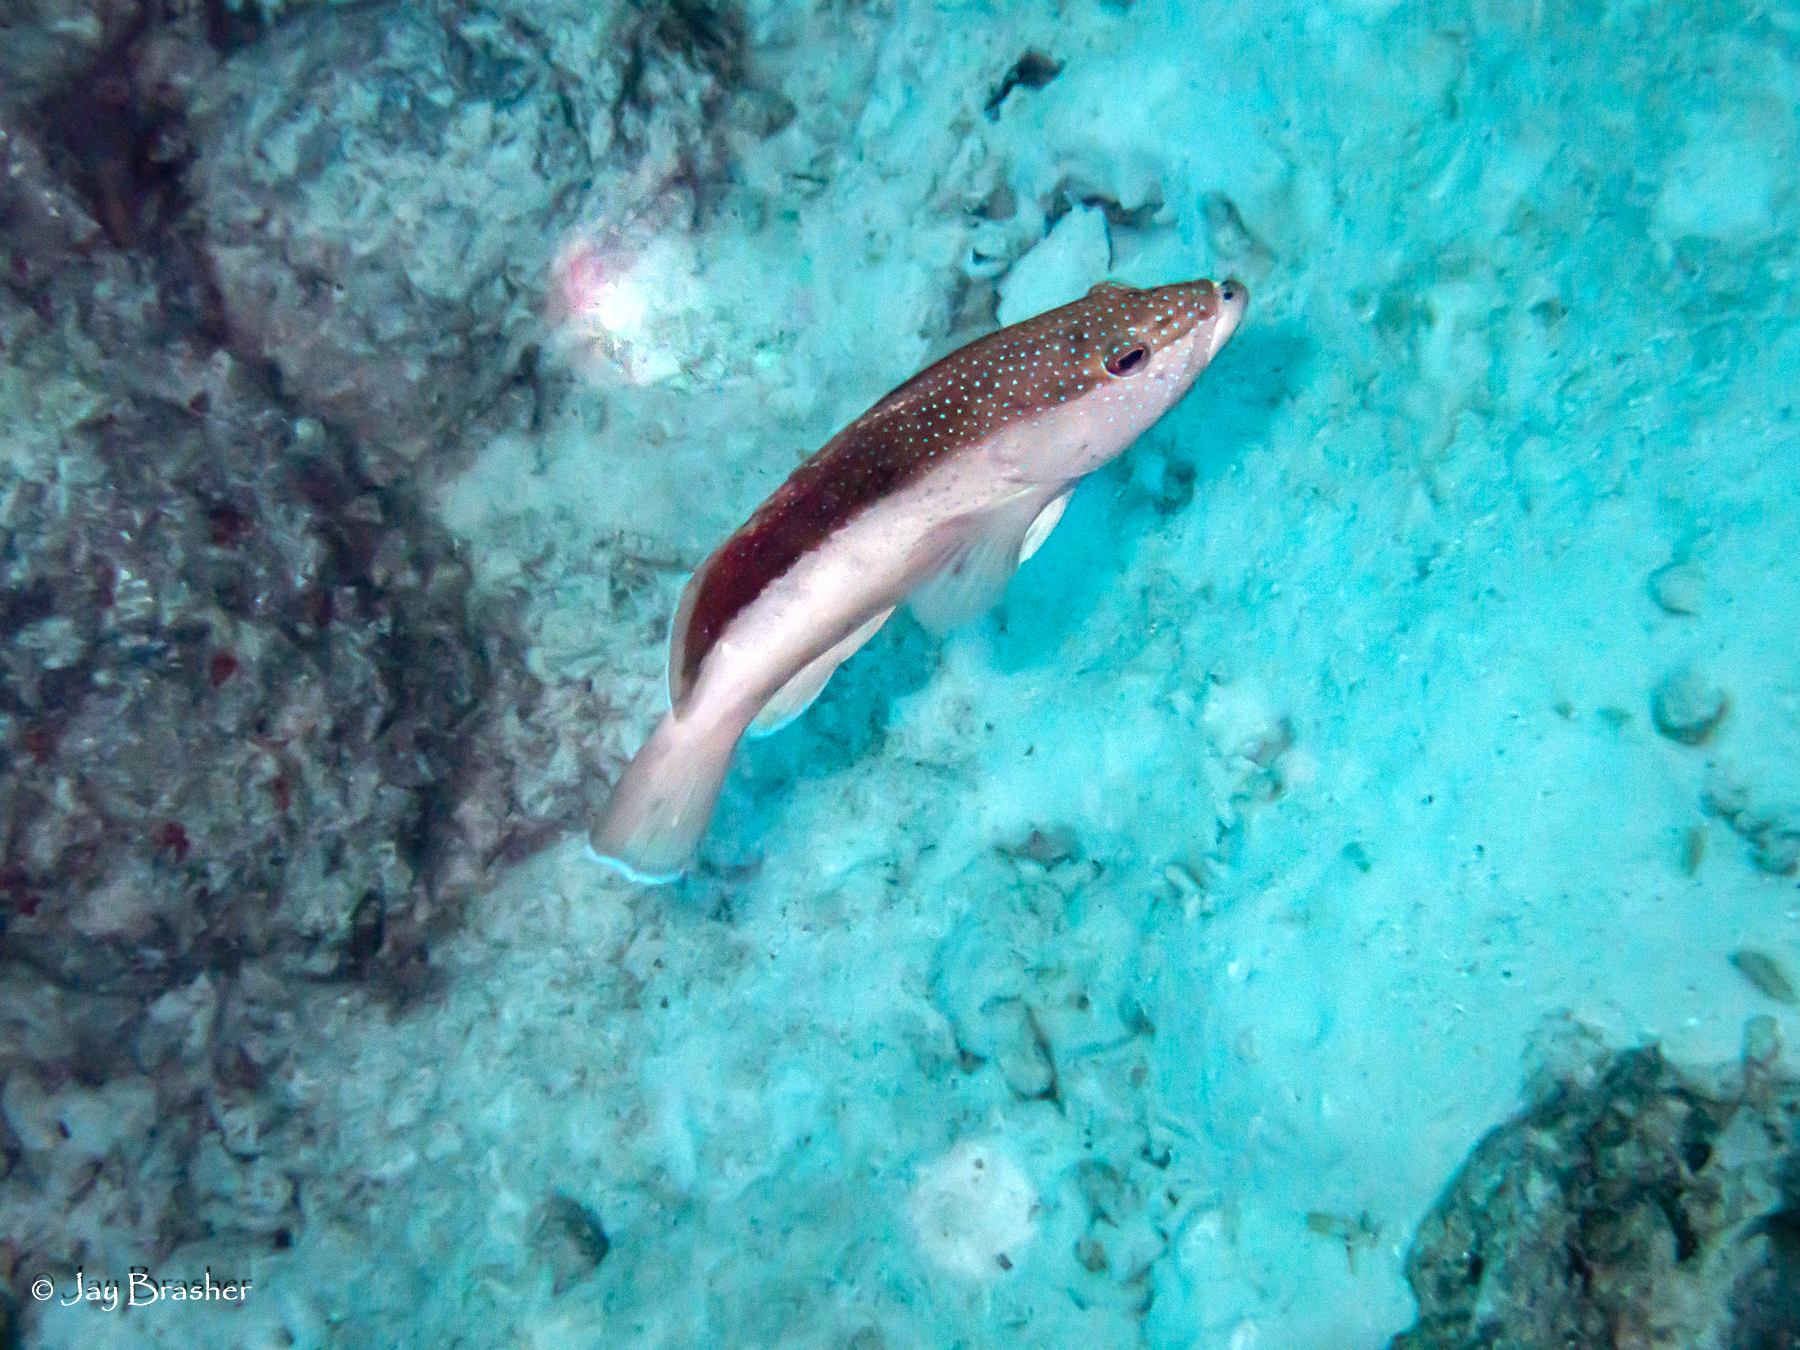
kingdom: Animalia
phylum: Chordata
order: Perciformes
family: Serranidae
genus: Cephalopholis
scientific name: Cephalopholis fulva
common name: Butterfish
